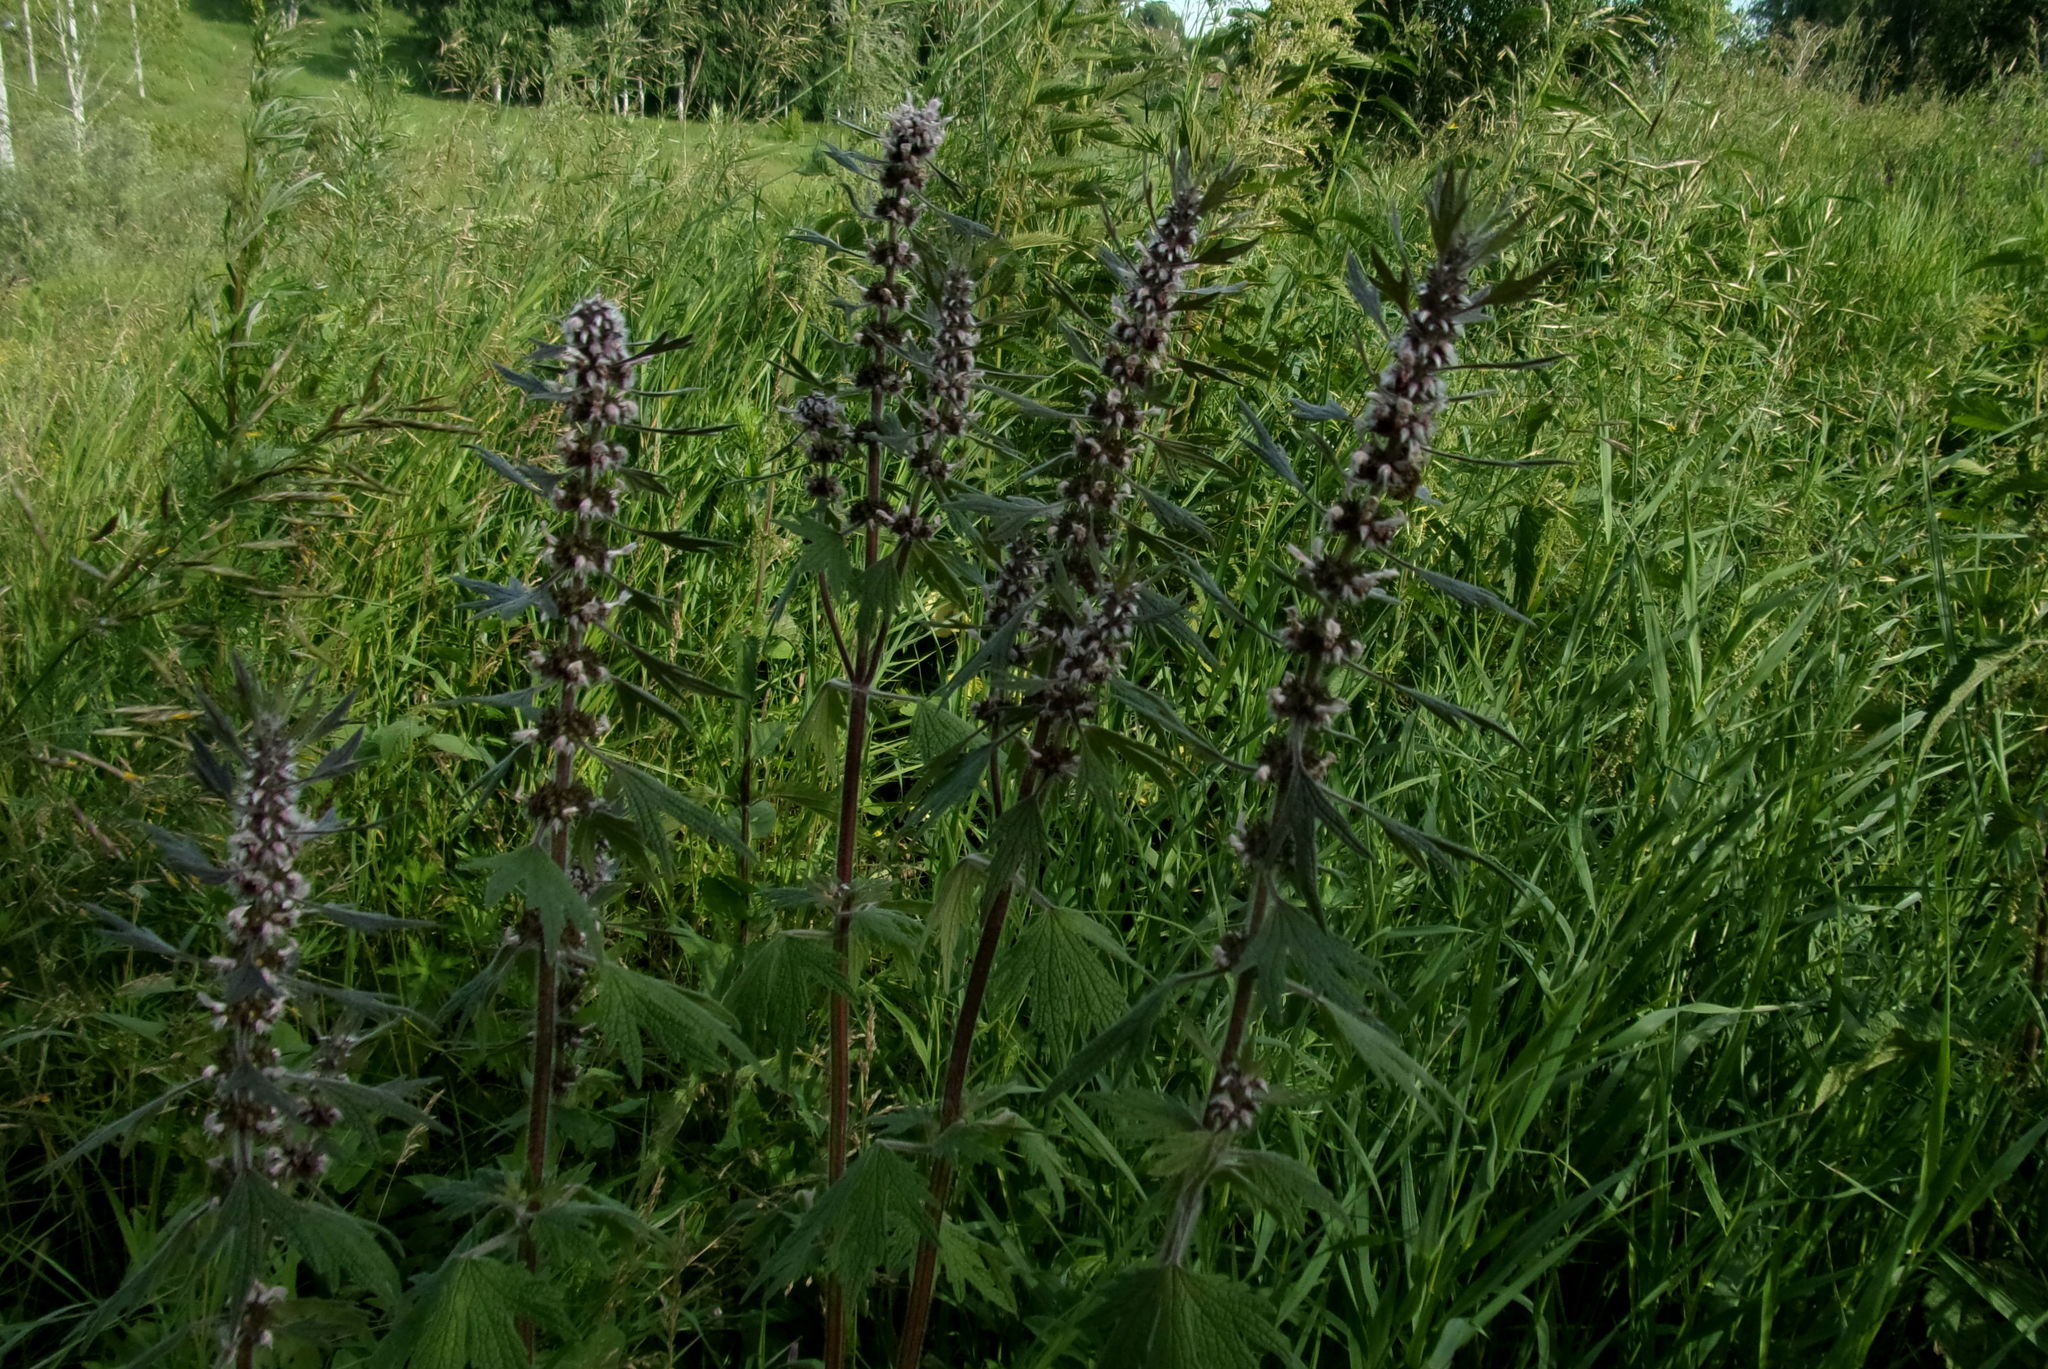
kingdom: Plantae
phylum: Tracheophyta
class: Magnoliopsida
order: Lamiales
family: Lamiaceae
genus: Leonurus
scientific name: Leonurus quinquelobatus
